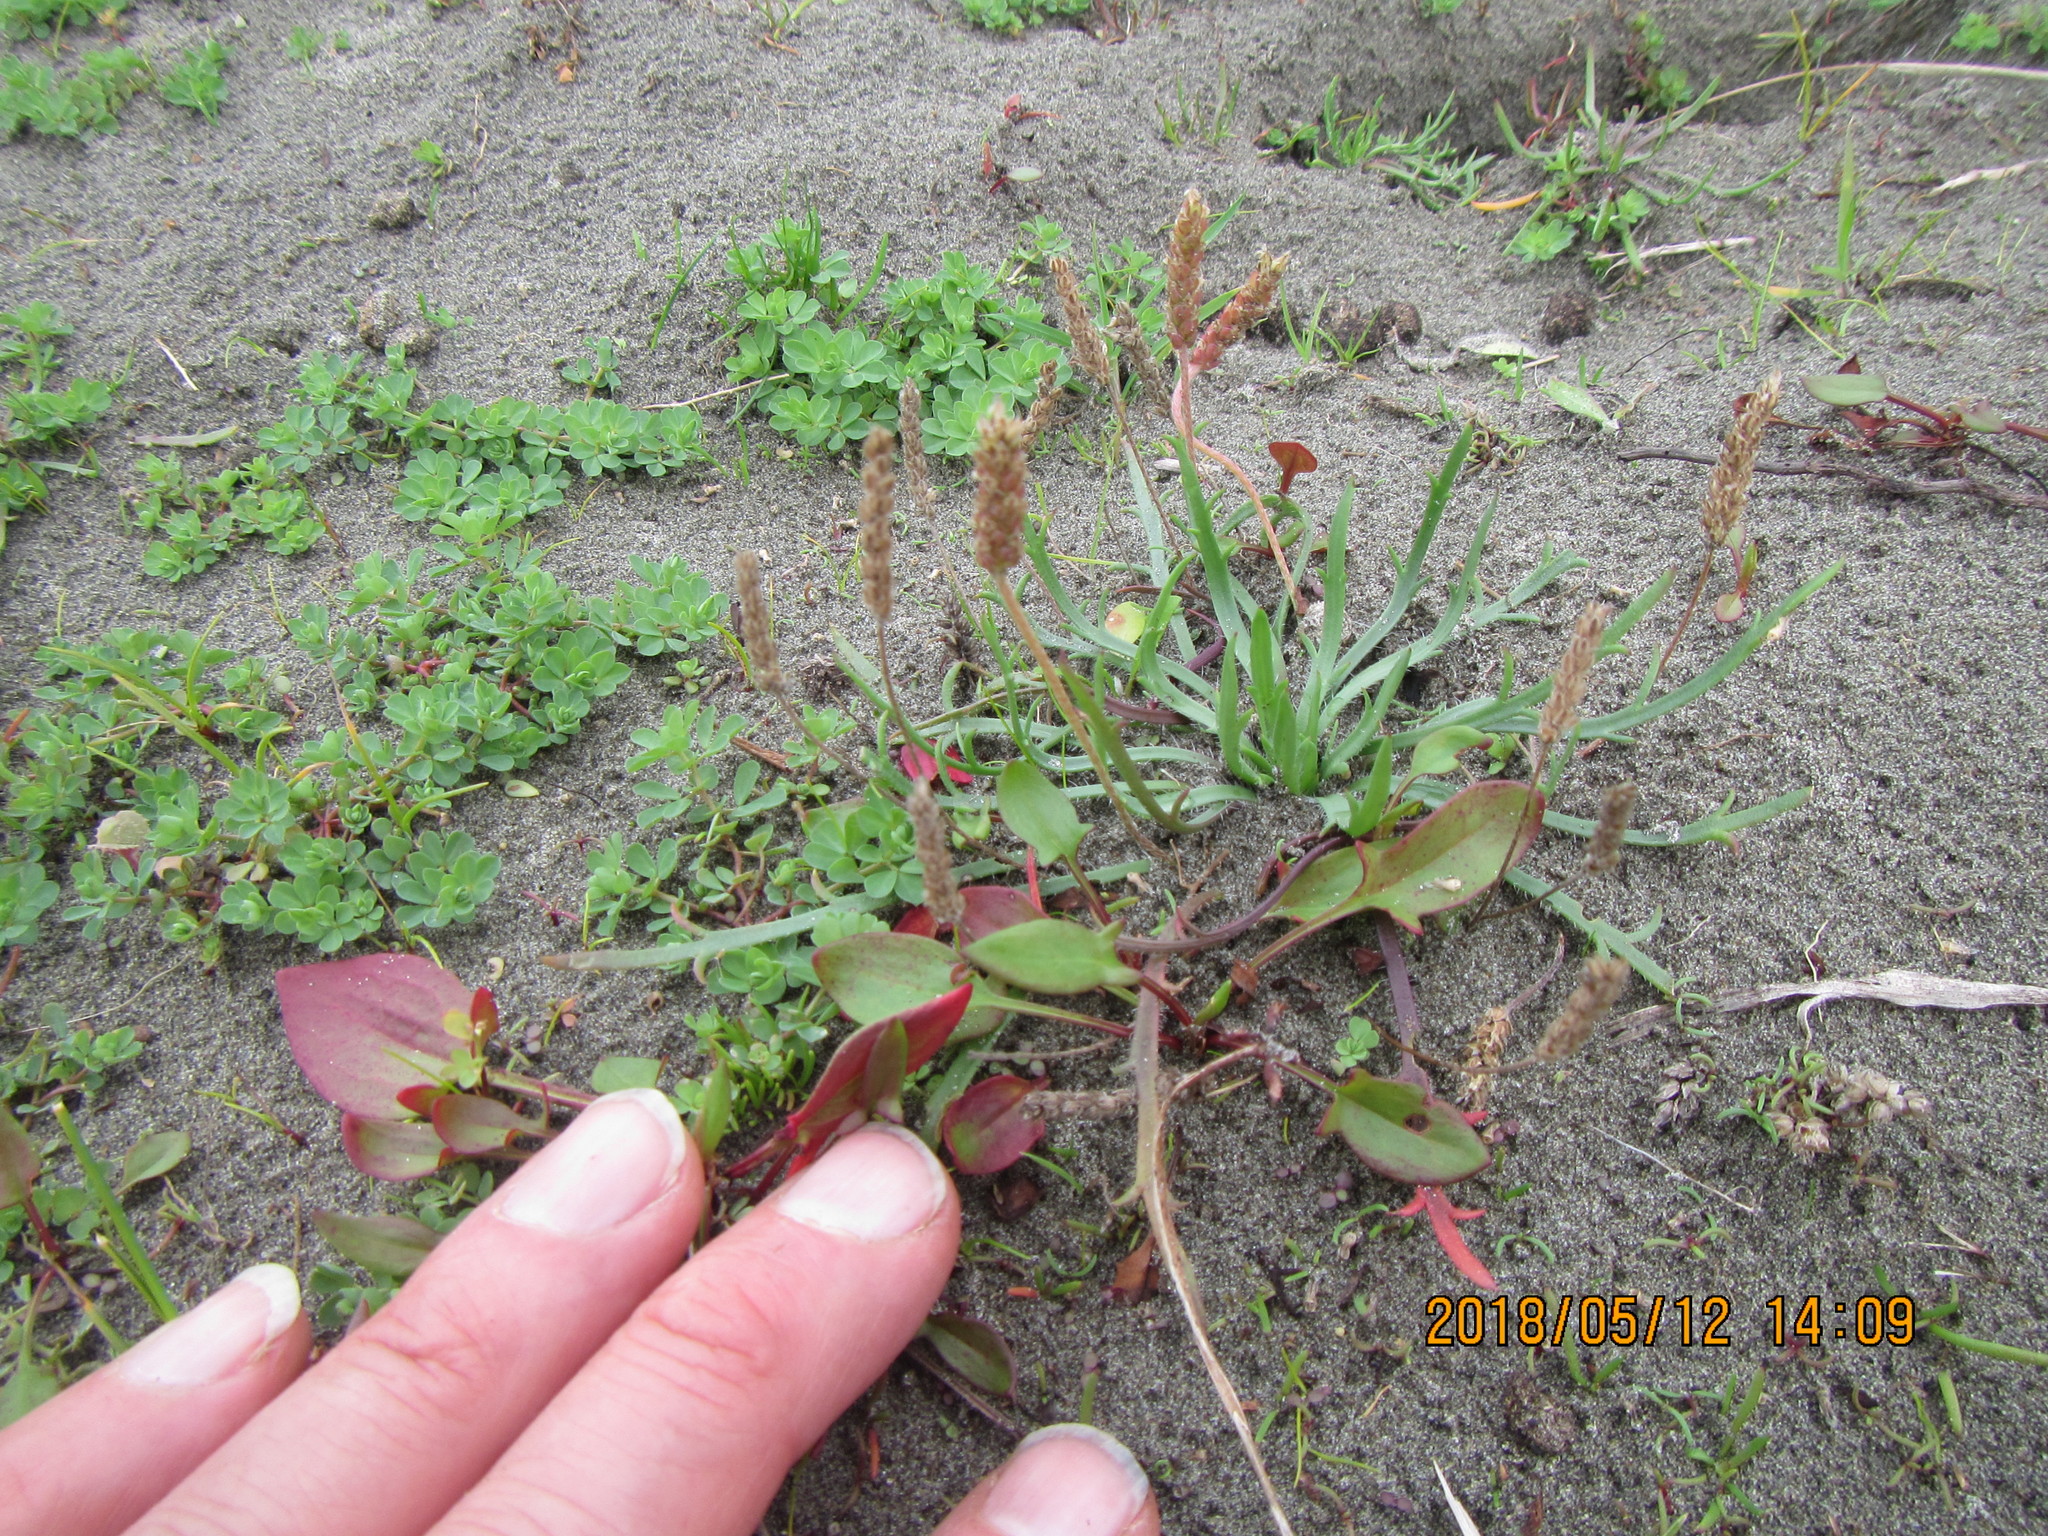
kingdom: Plantae
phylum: Tracheophyta
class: Magnoliopsida
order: Lamiales
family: Plantaginaceae
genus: Plantago
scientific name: Plantago coronopus
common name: Buck's-horn plantain
